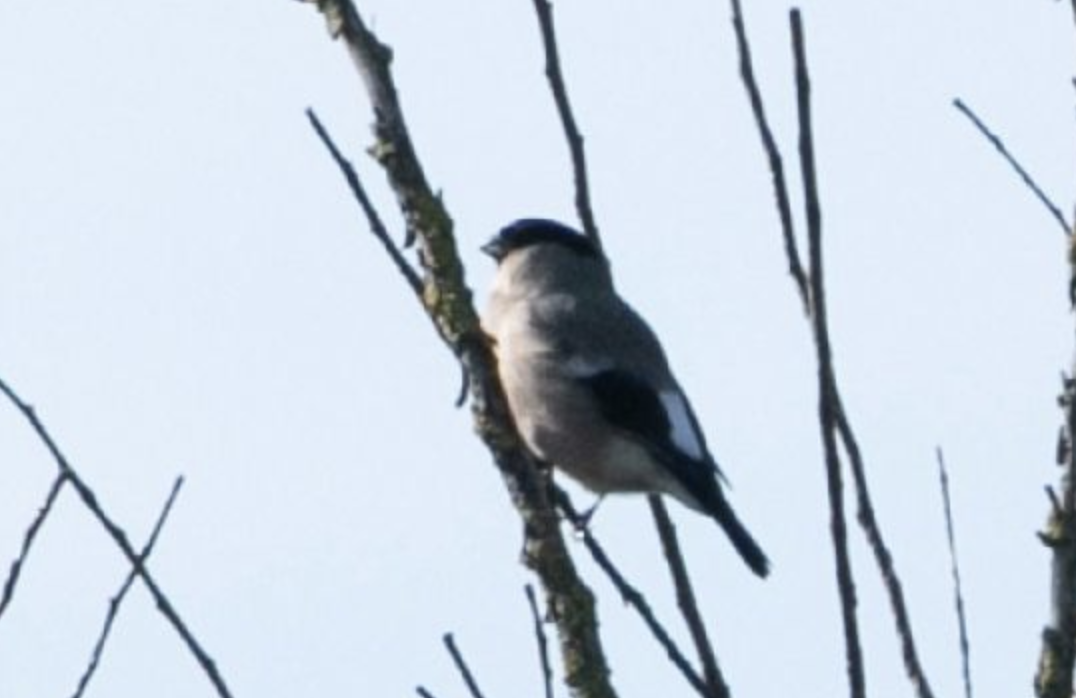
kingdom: Animalia
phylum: Chordata
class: Aves
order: Passeriformes
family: Fringillidae
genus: Pyrrhula
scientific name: Pyrrhula pyrrhula
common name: Eurasian bullfinch
